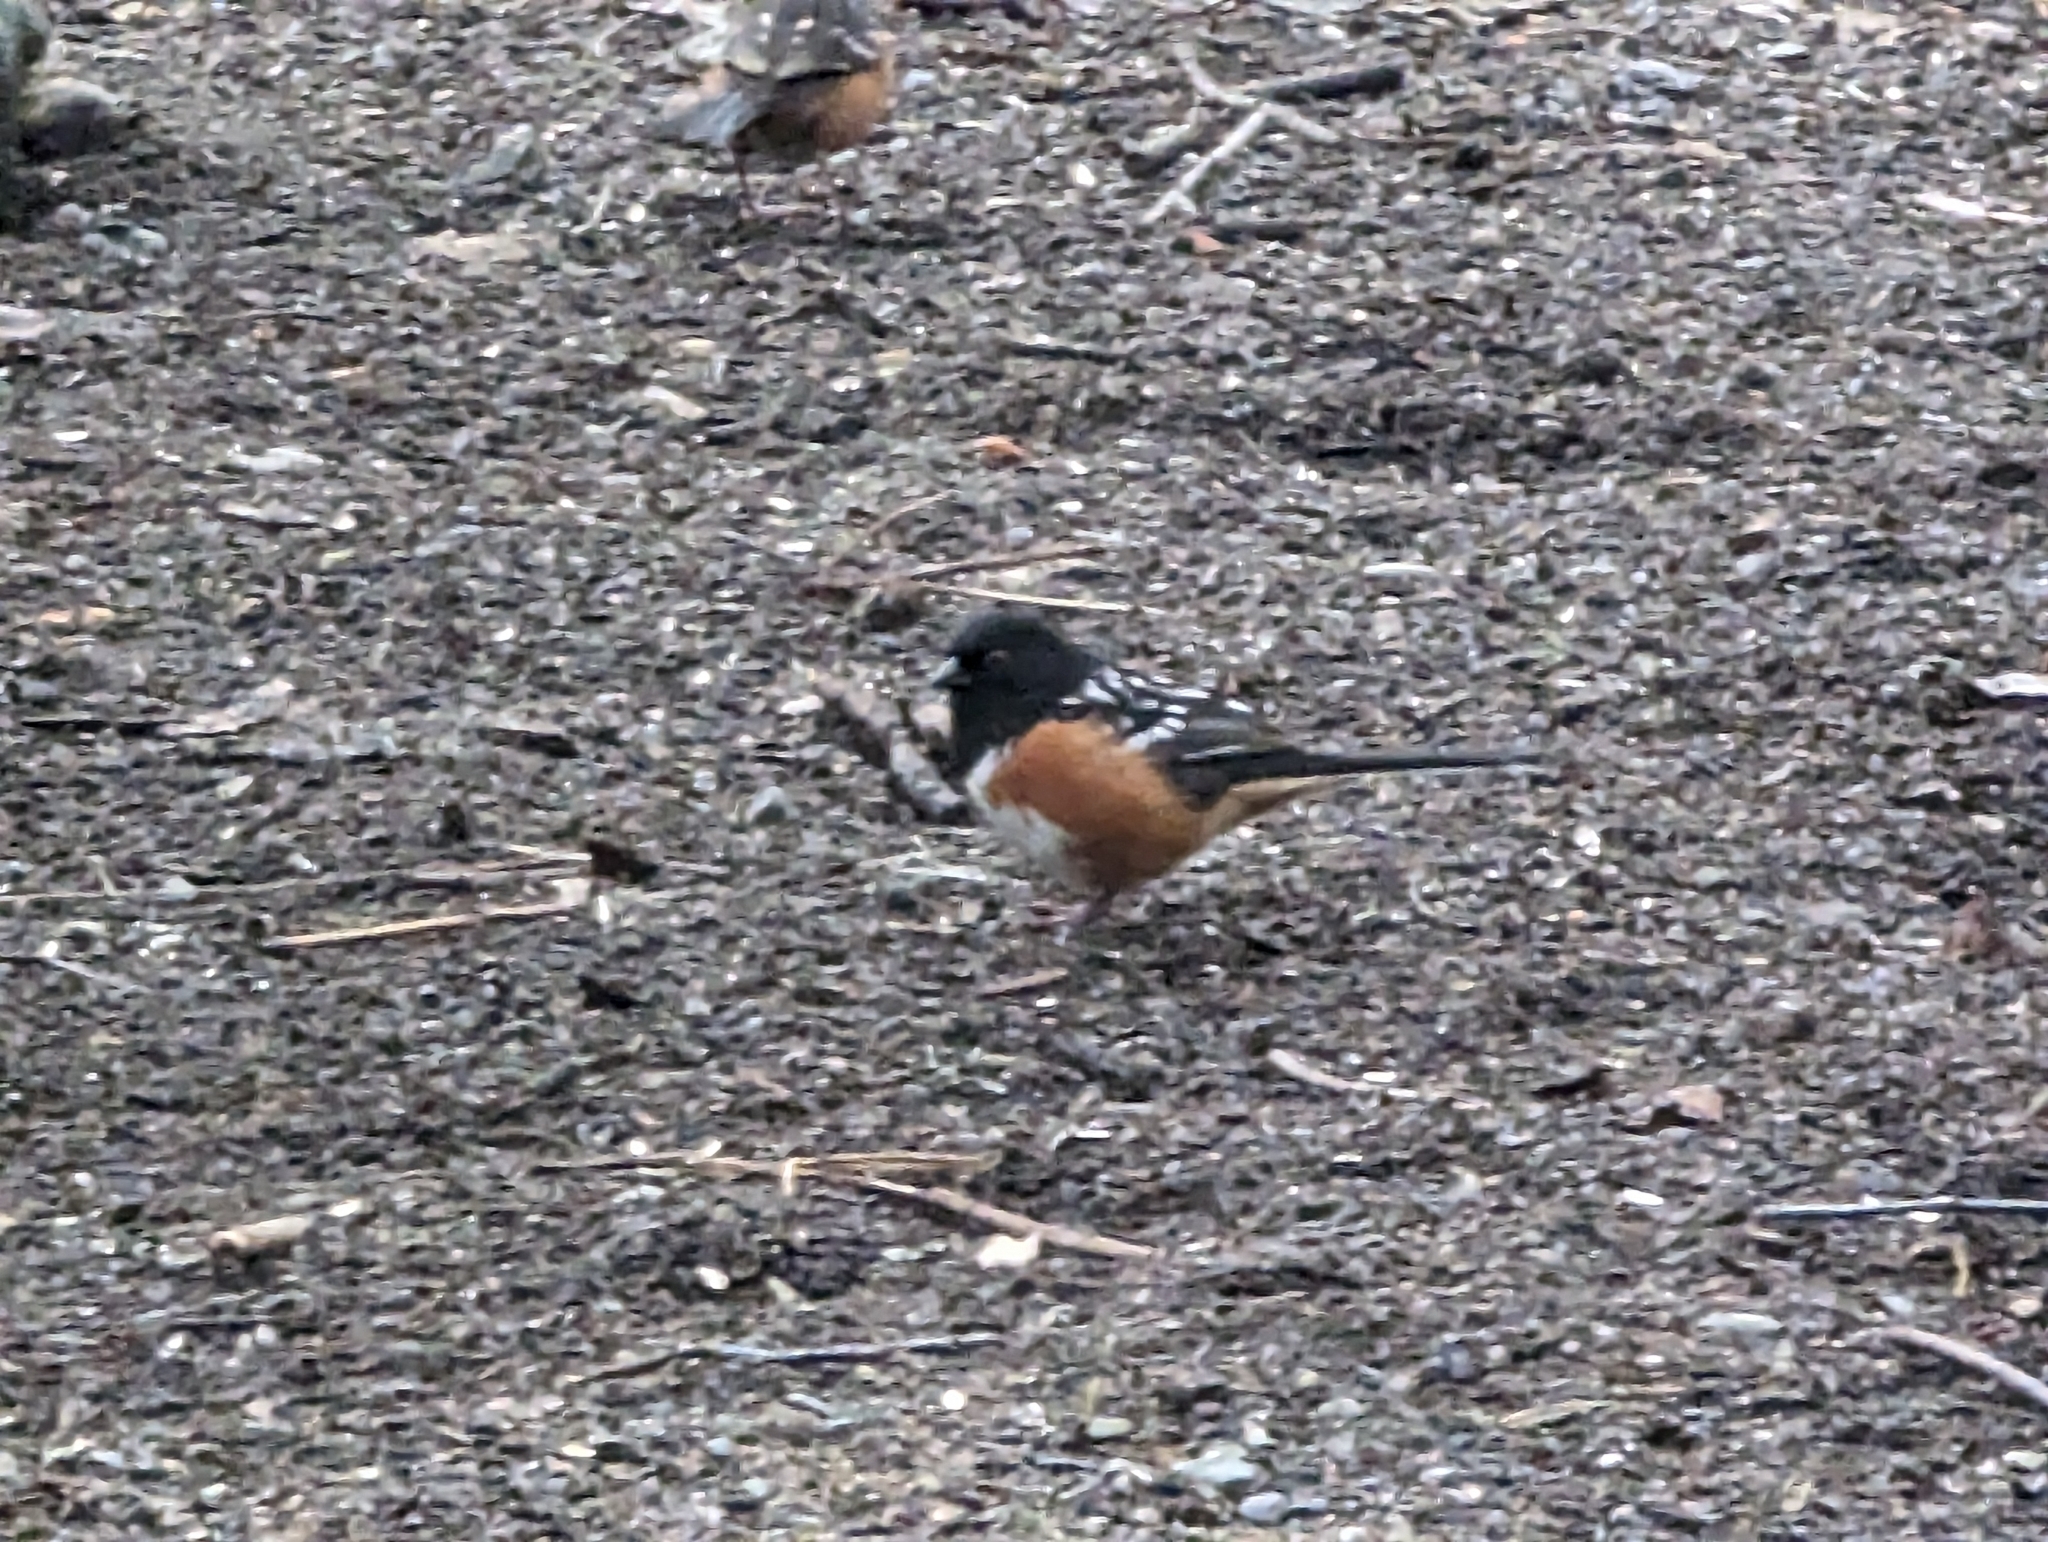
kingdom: Animalia
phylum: Chordata
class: Aves
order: Passeriformes
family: Passerellidae
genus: Pipilo
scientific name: Pipilo maculatus
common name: Spotted towhee
